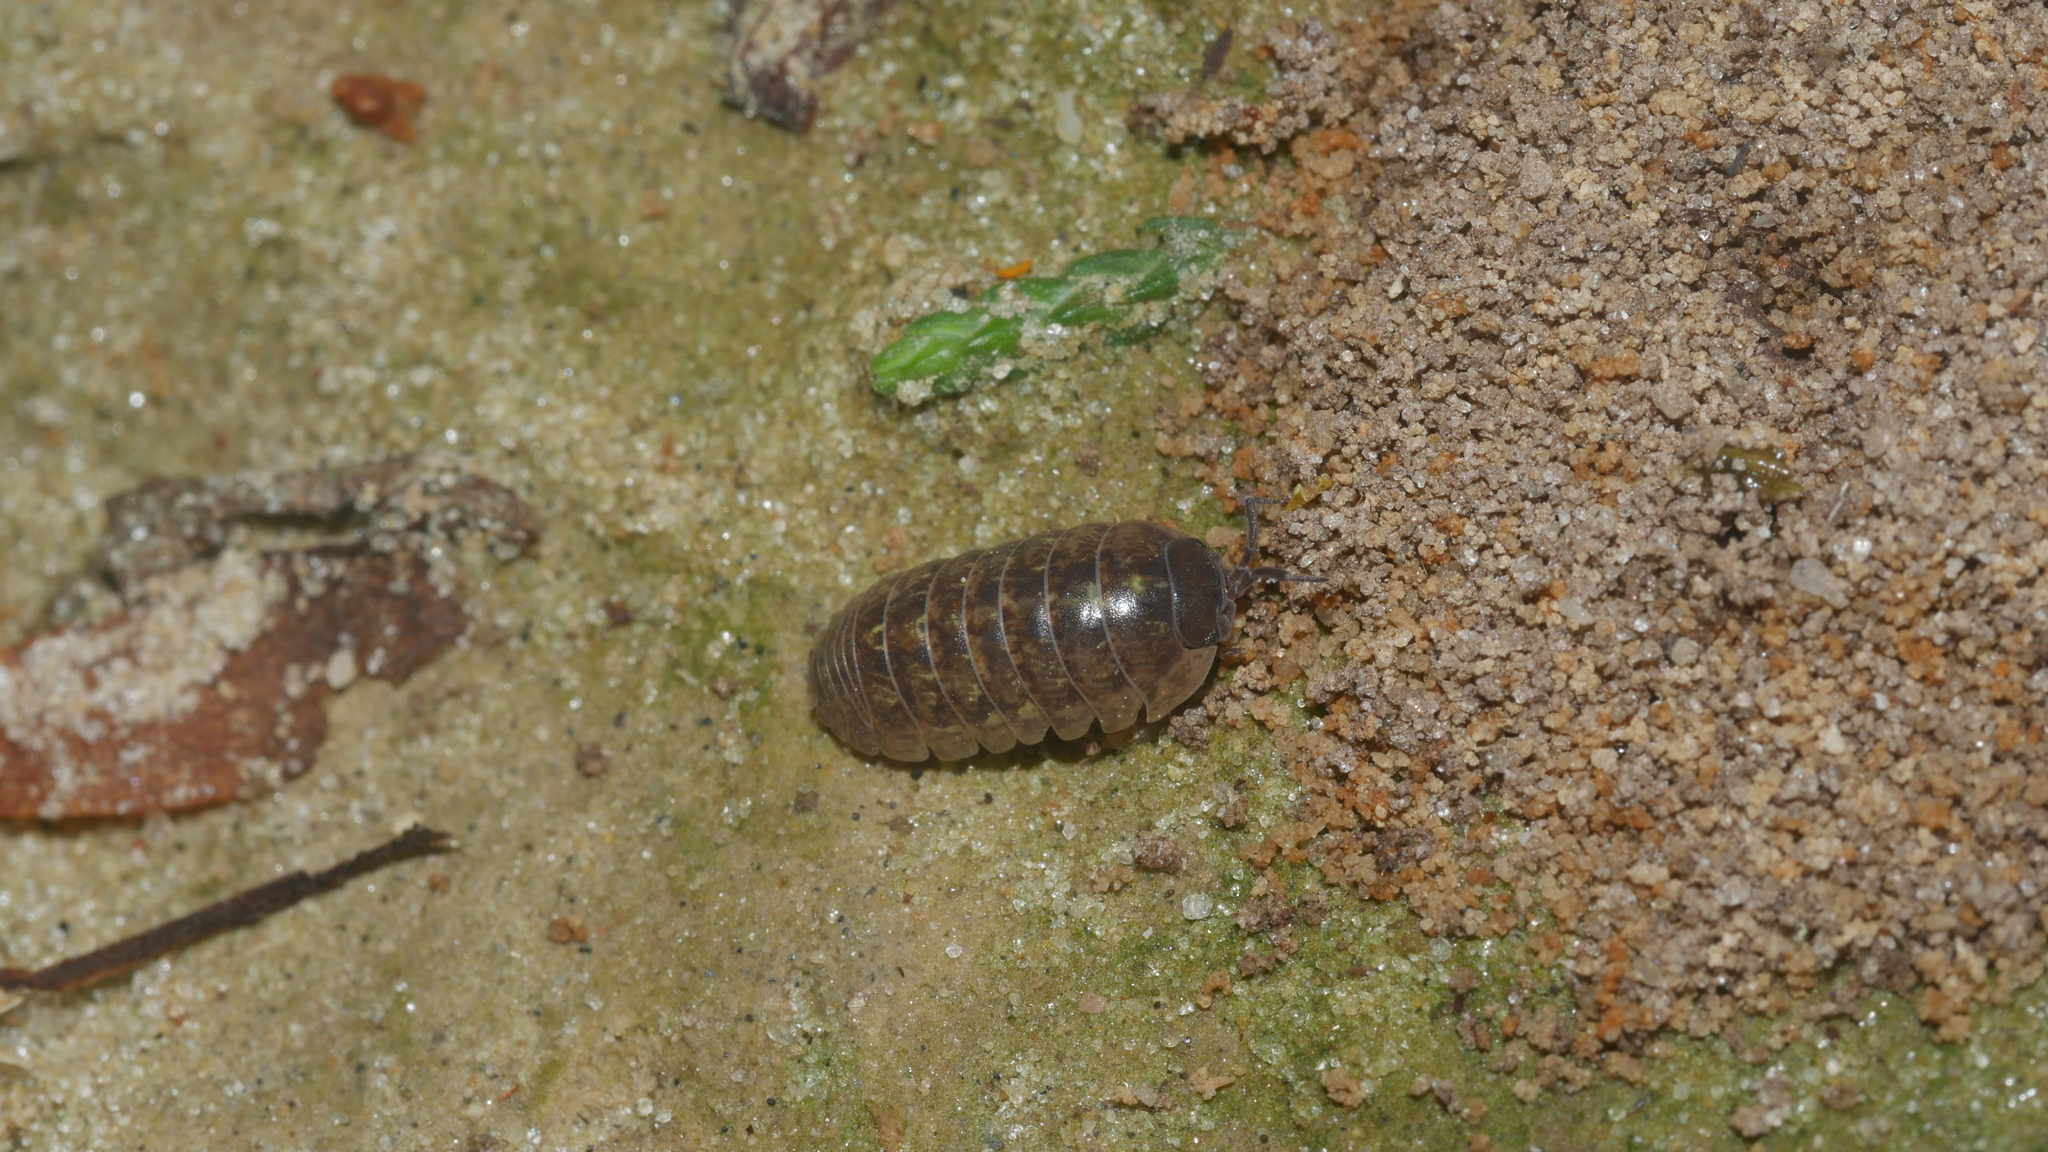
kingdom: Animalia
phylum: Arthropoda
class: Malacostraca
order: Isopoda
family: Armadillidiidae
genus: Armadillidium
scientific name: Armadillidium vulgare
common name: Common pill woodlouse
